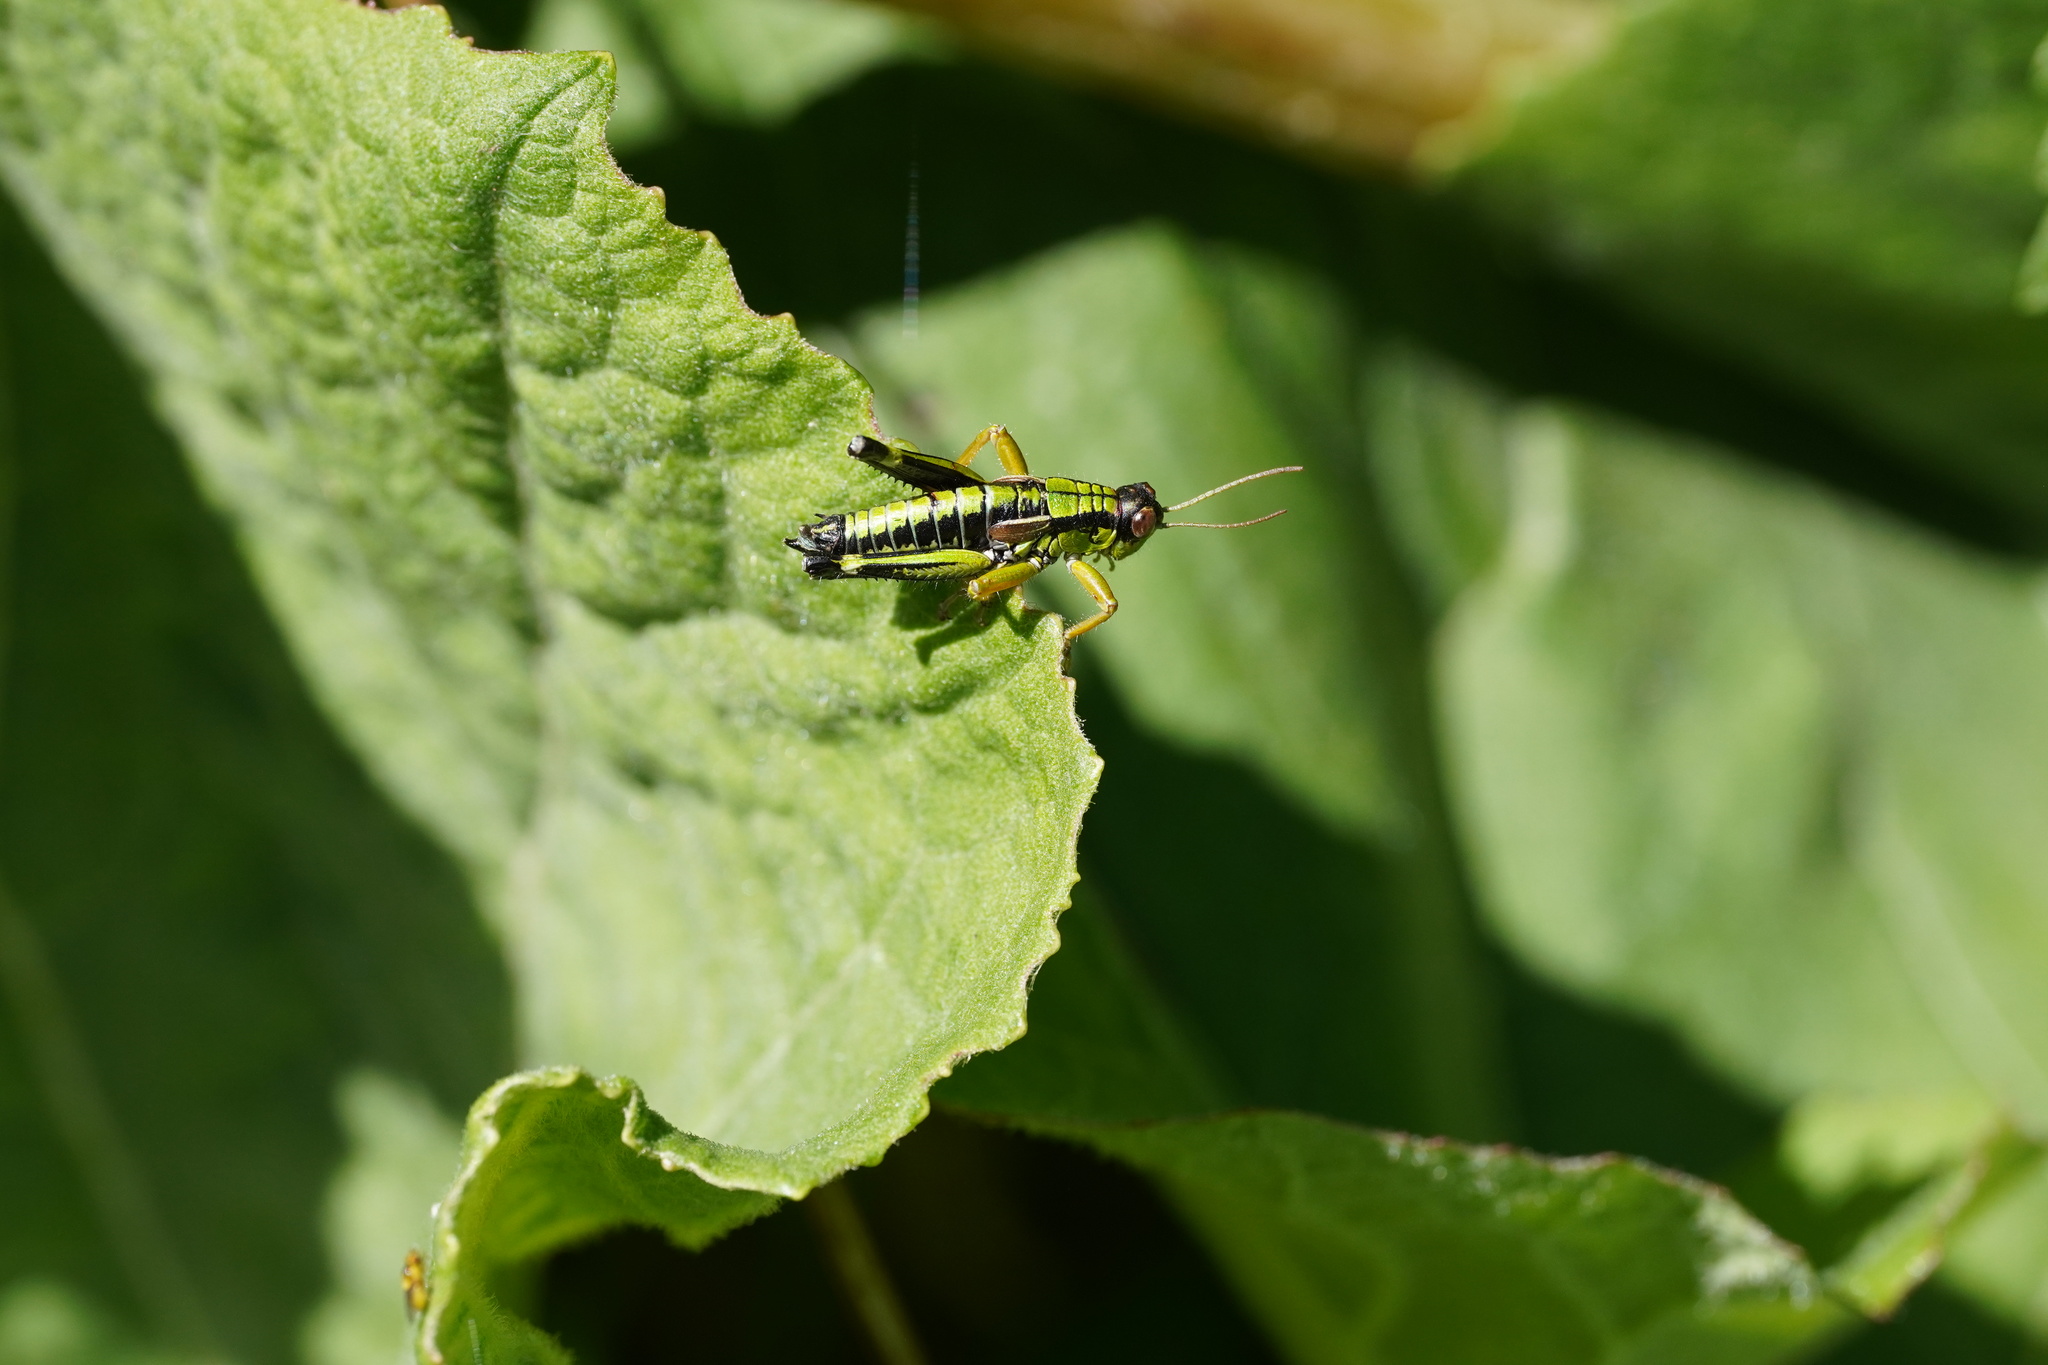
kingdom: Animalia
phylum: Arthropoda
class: Insecta
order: Orthoptera
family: Acrididae
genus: Miramella
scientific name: Miramella alpina
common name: Green mountain grasshopper
